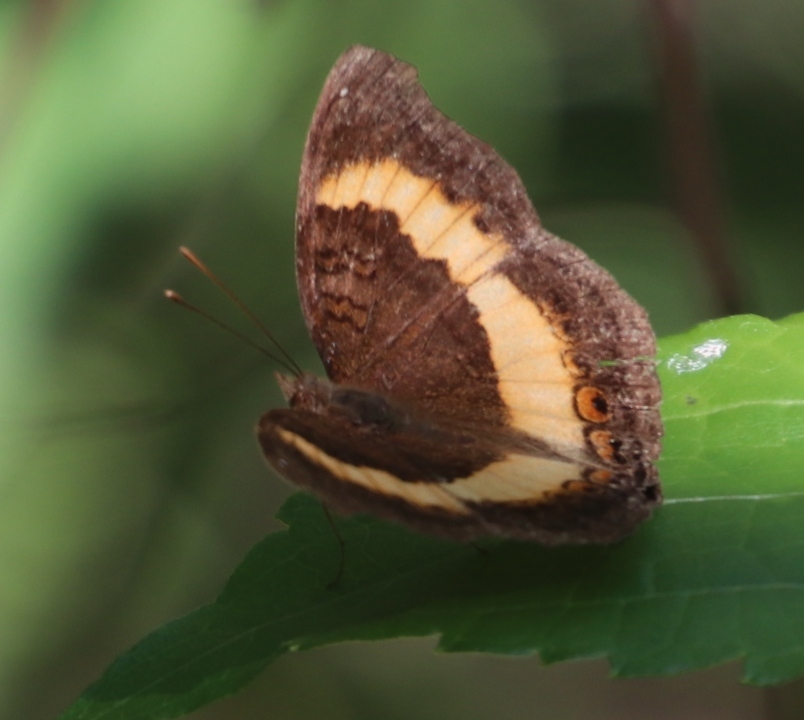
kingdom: Animalia
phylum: Arthropoda
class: Insecta
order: Lepidoptera
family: Nymphalidae
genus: Junonia
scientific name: Junonia terea
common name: Soldier pansy
